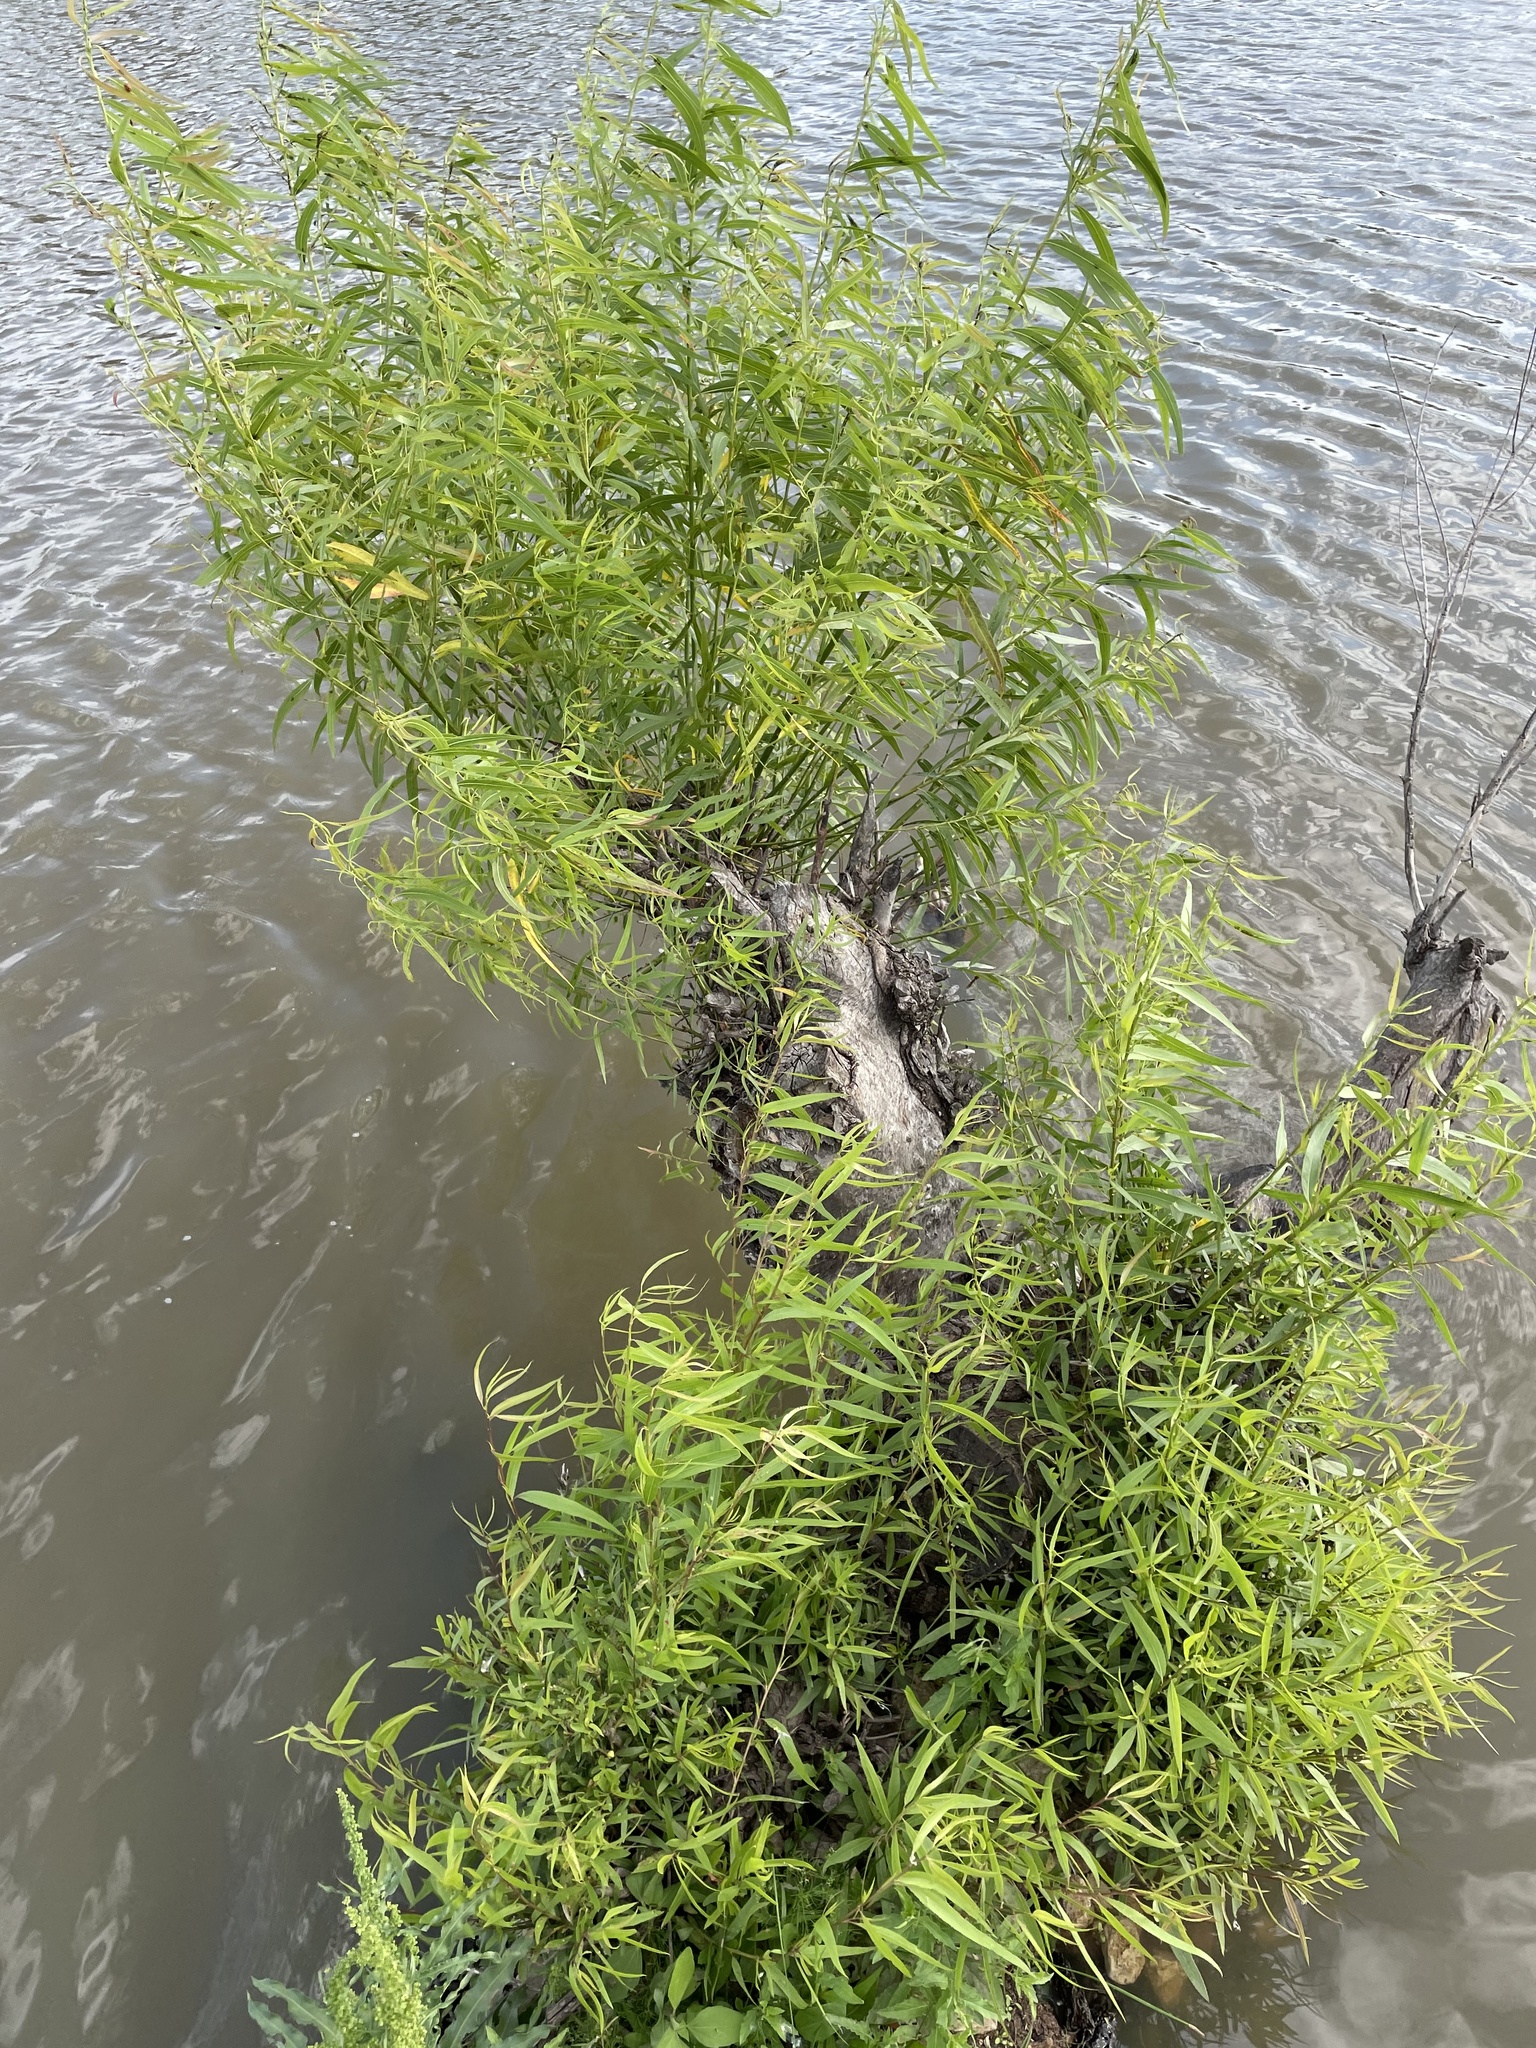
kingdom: Plantae
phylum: Tracheophyta
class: Magnoliopsida
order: Malpighiales
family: Salicaceae
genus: Salix
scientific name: Salix nigra
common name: Black willow
